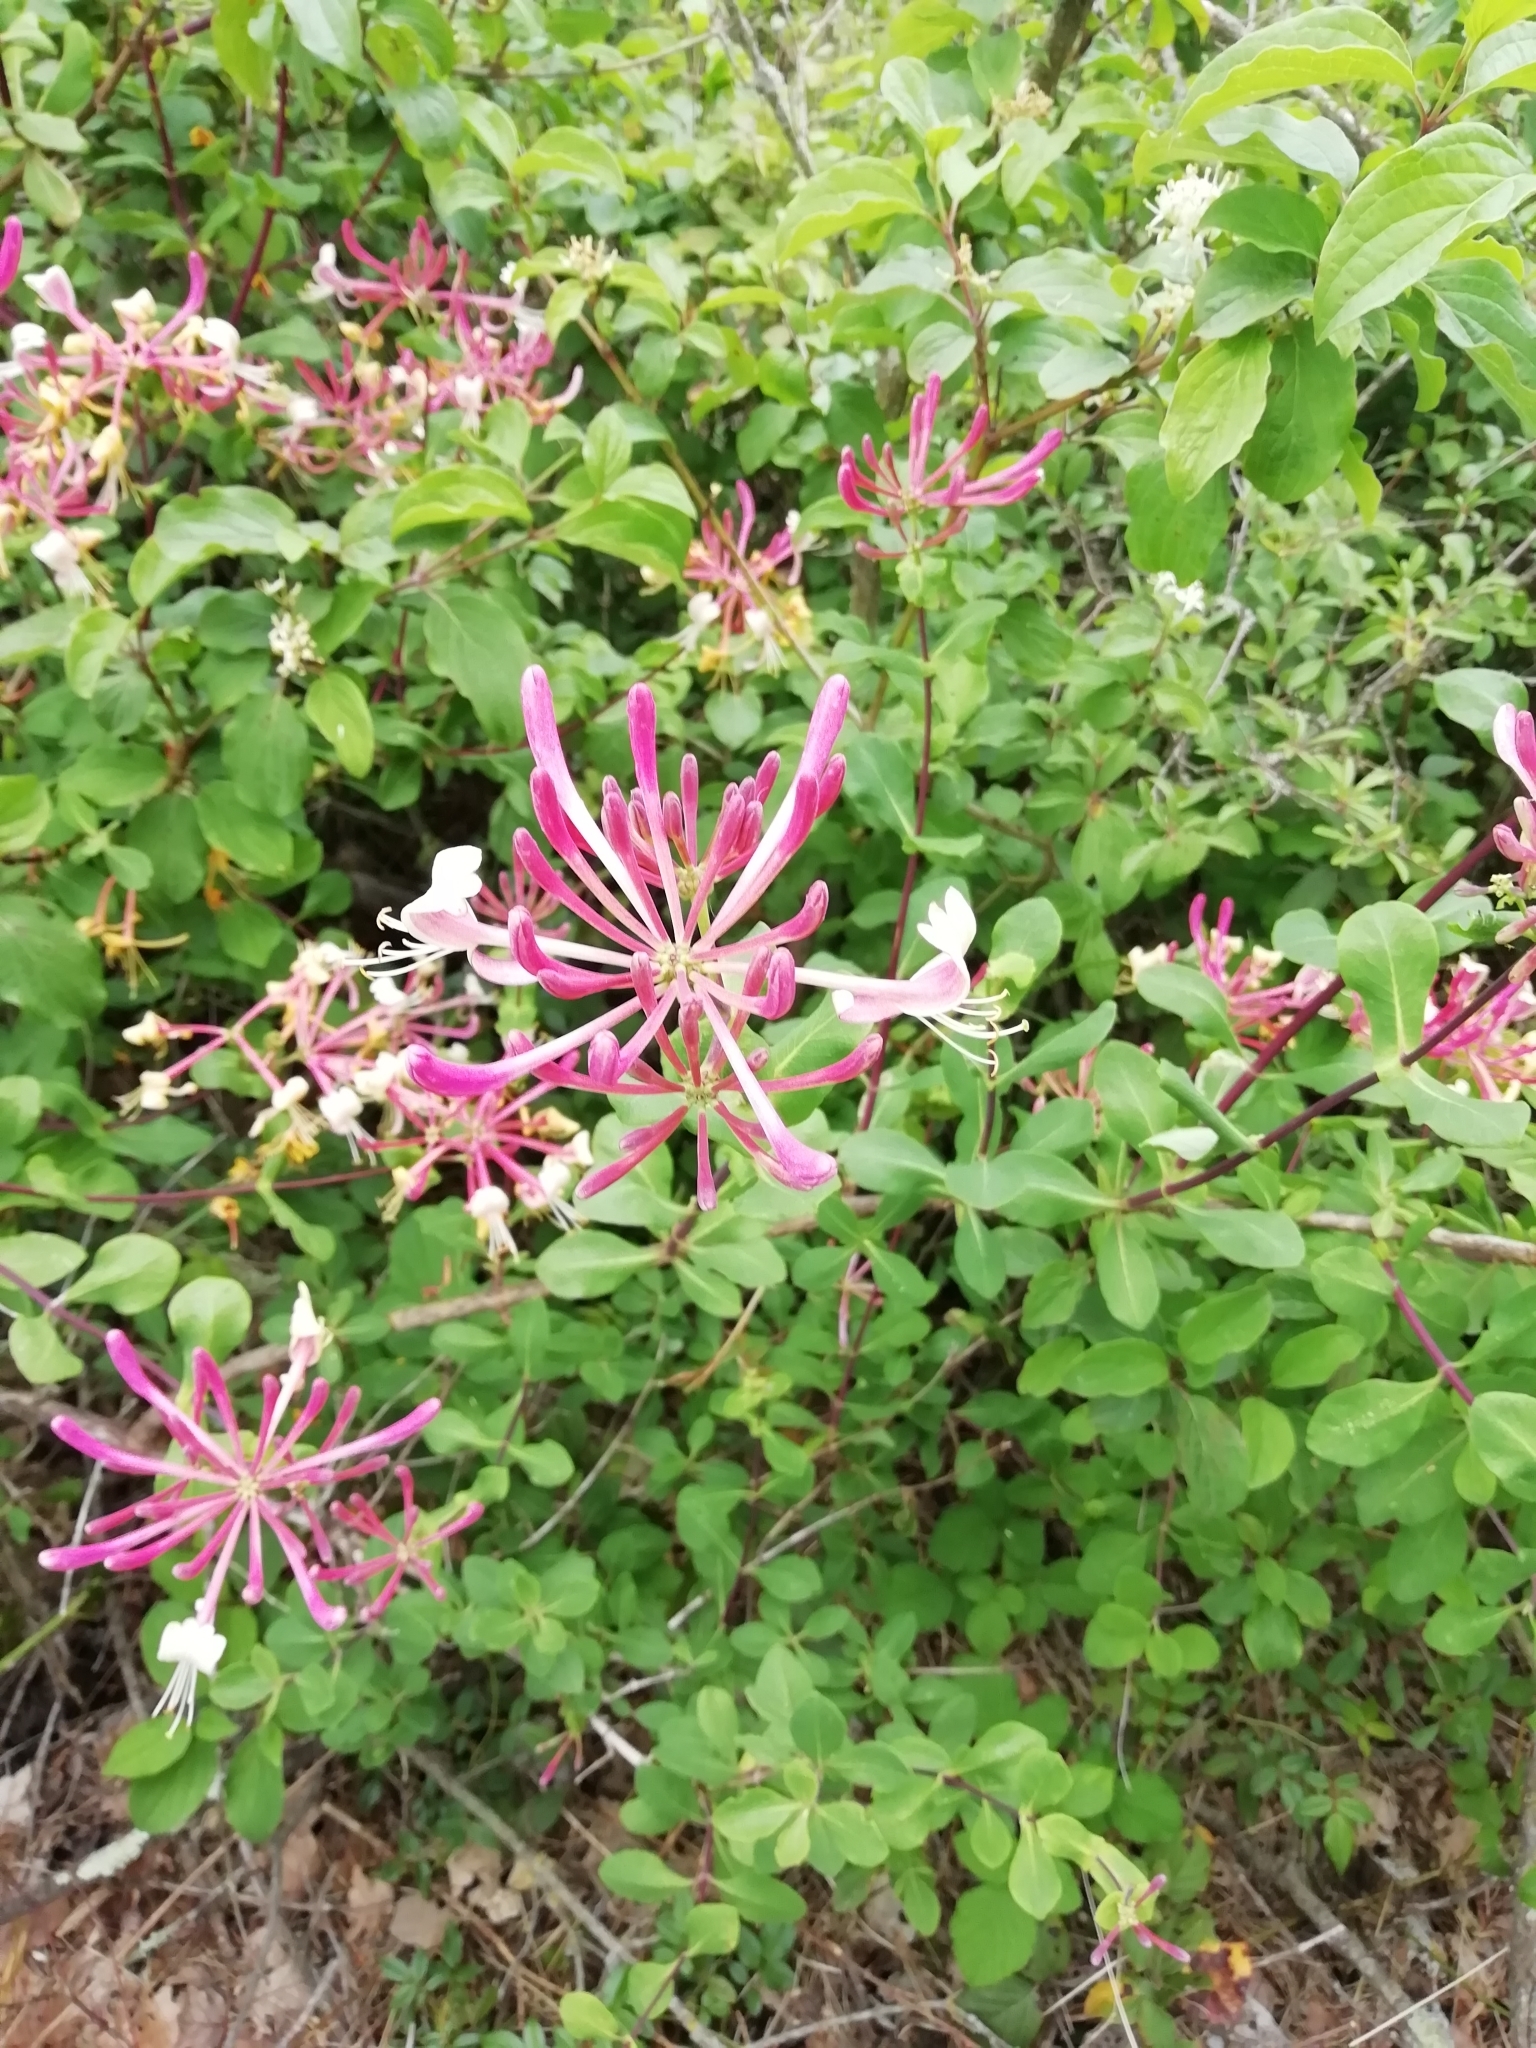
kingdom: Plantae
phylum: Tracheophyta
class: Magnoliopsida
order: Dipsacales
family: Caprifoliaceae
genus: Lonicera
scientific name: Lonicera etrusca
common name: Etruscan honeysuckle
